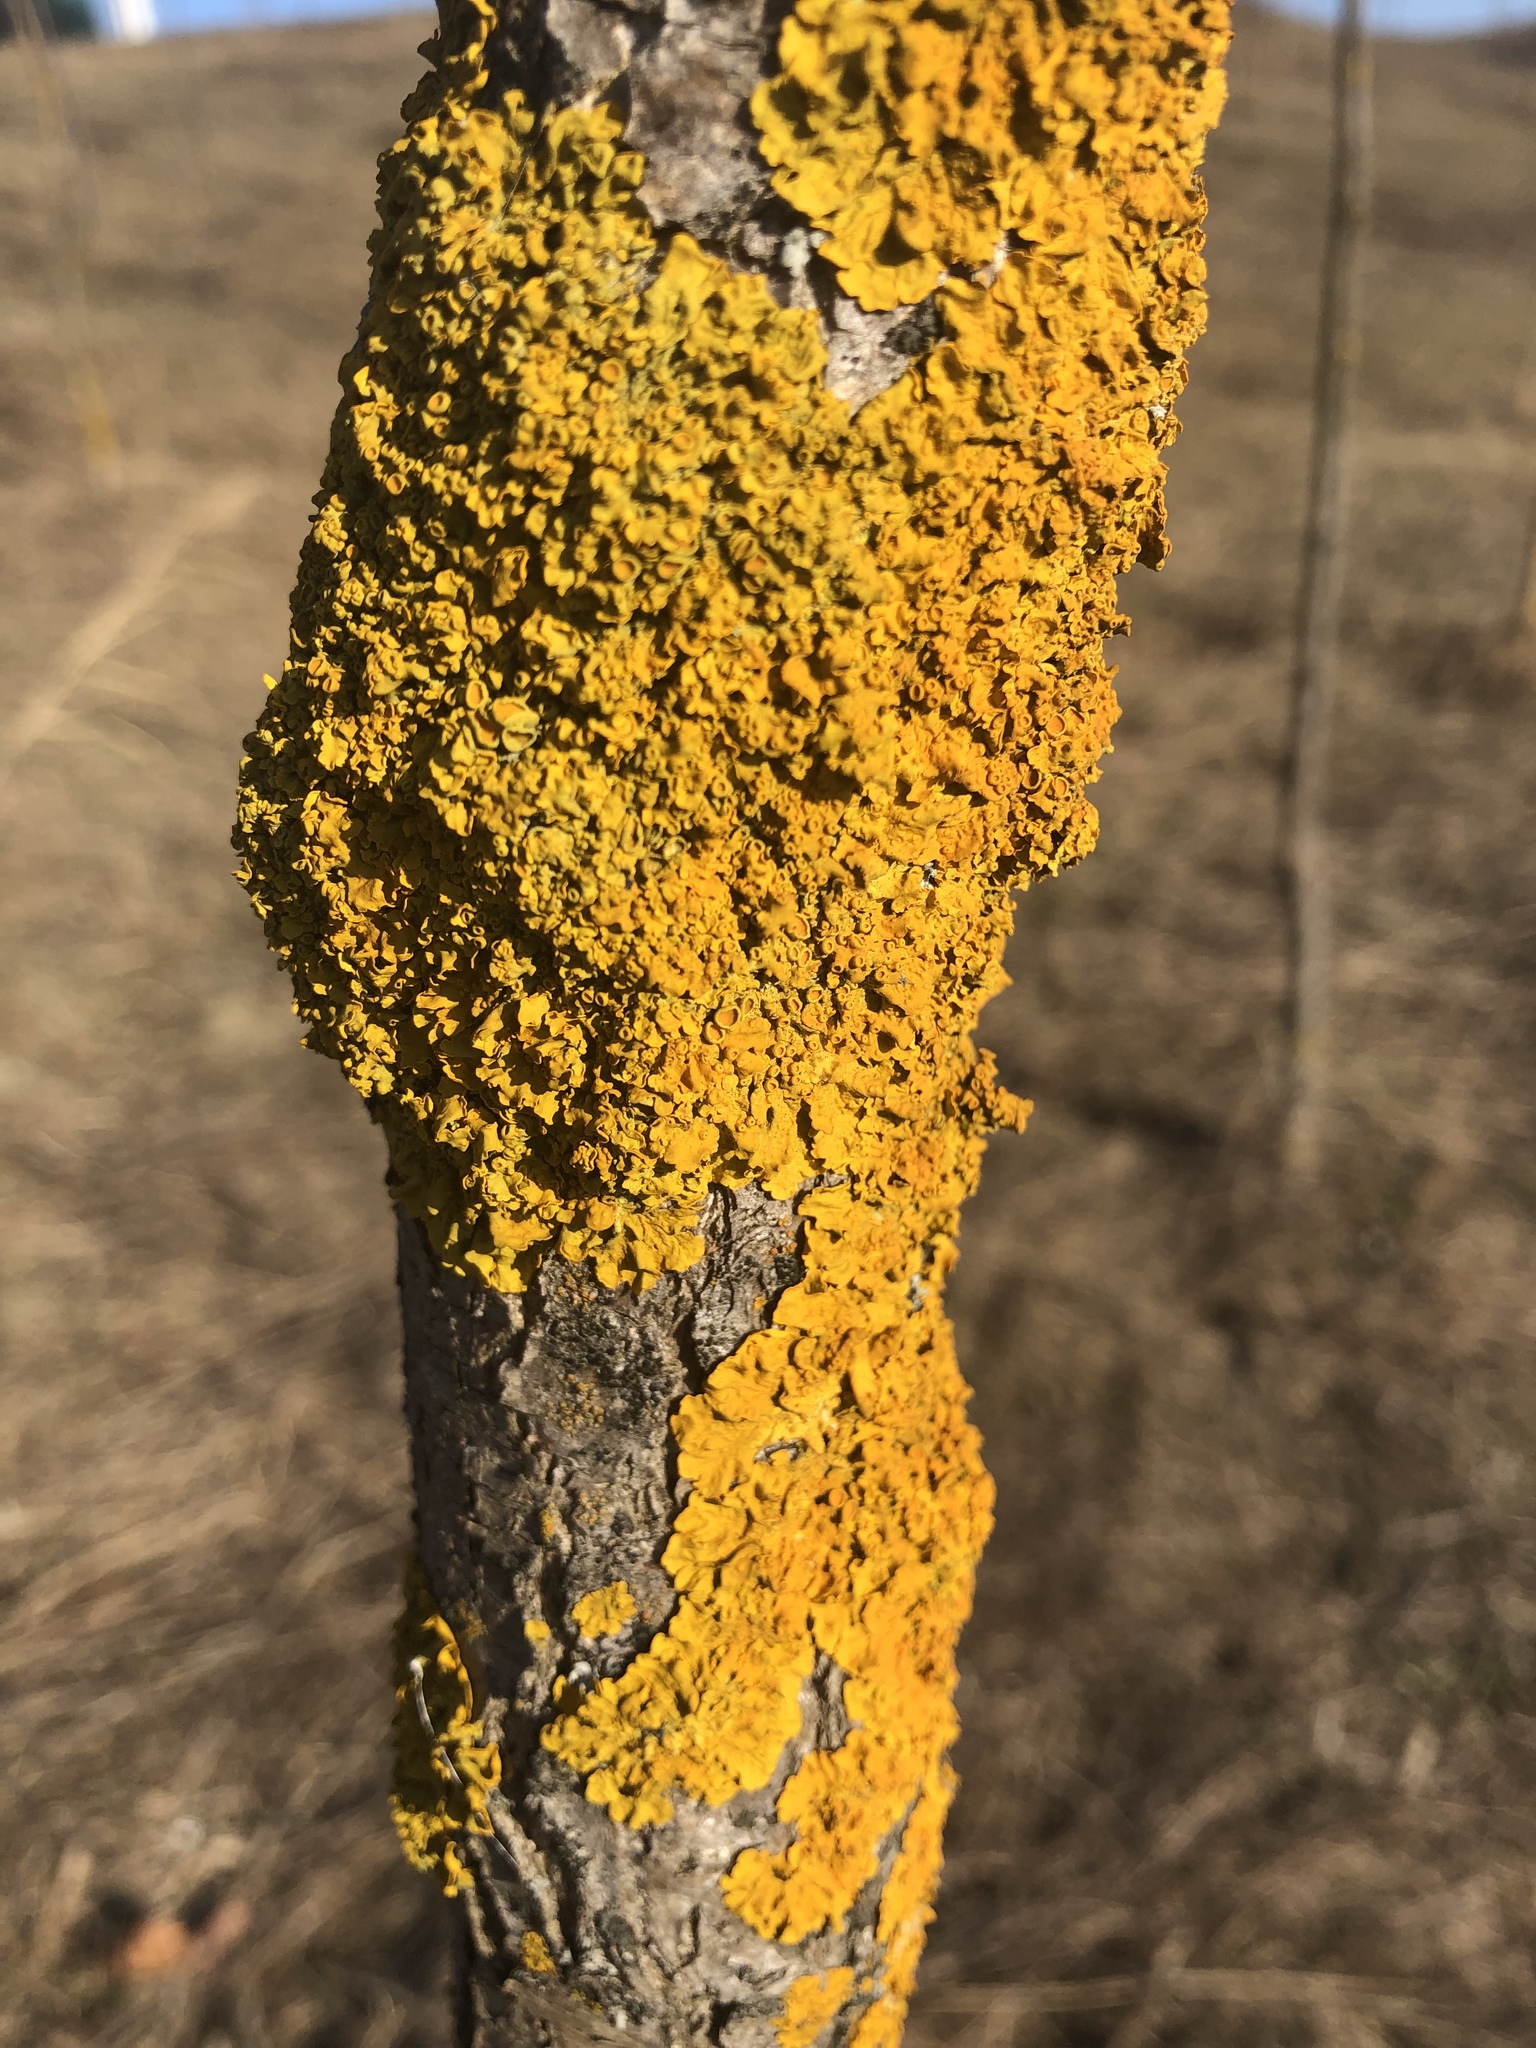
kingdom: Fungi
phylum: Ascomycota
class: Lecanoromycetes
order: Teloschistales
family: Teloschistaceae
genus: Xanthoria
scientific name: Xanthoria parietina
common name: Common orange lichen
